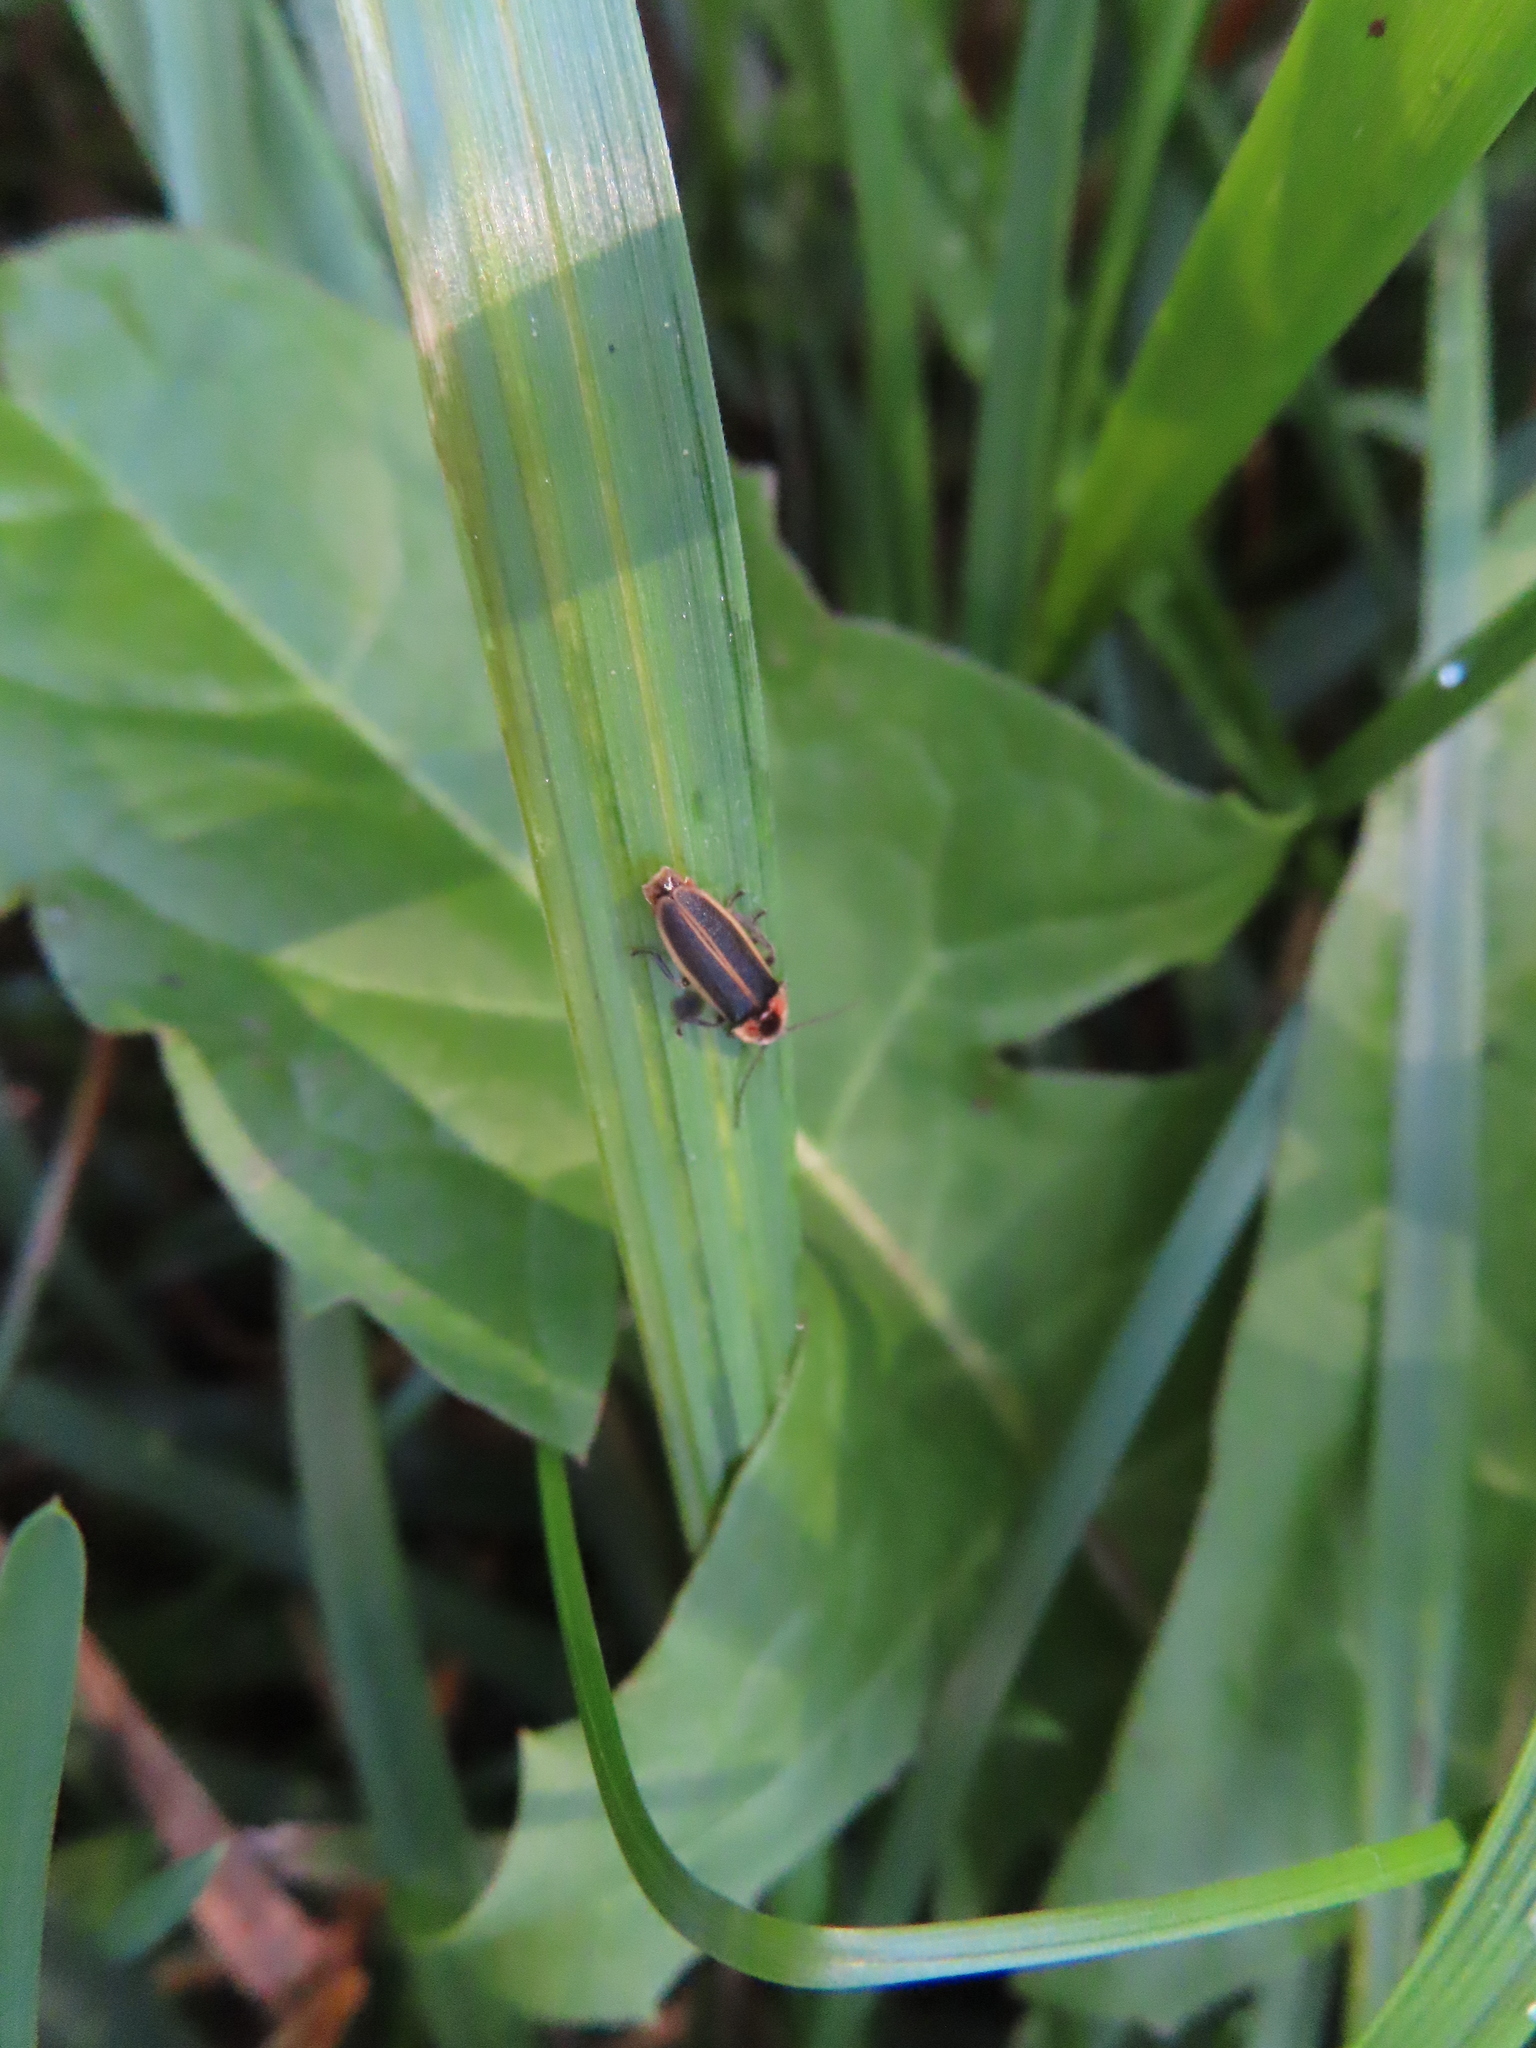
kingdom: Animalia
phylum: Arthropoda
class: Insecta
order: Coleoptera
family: Lampyridae
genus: Photinus
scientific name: Photinus
